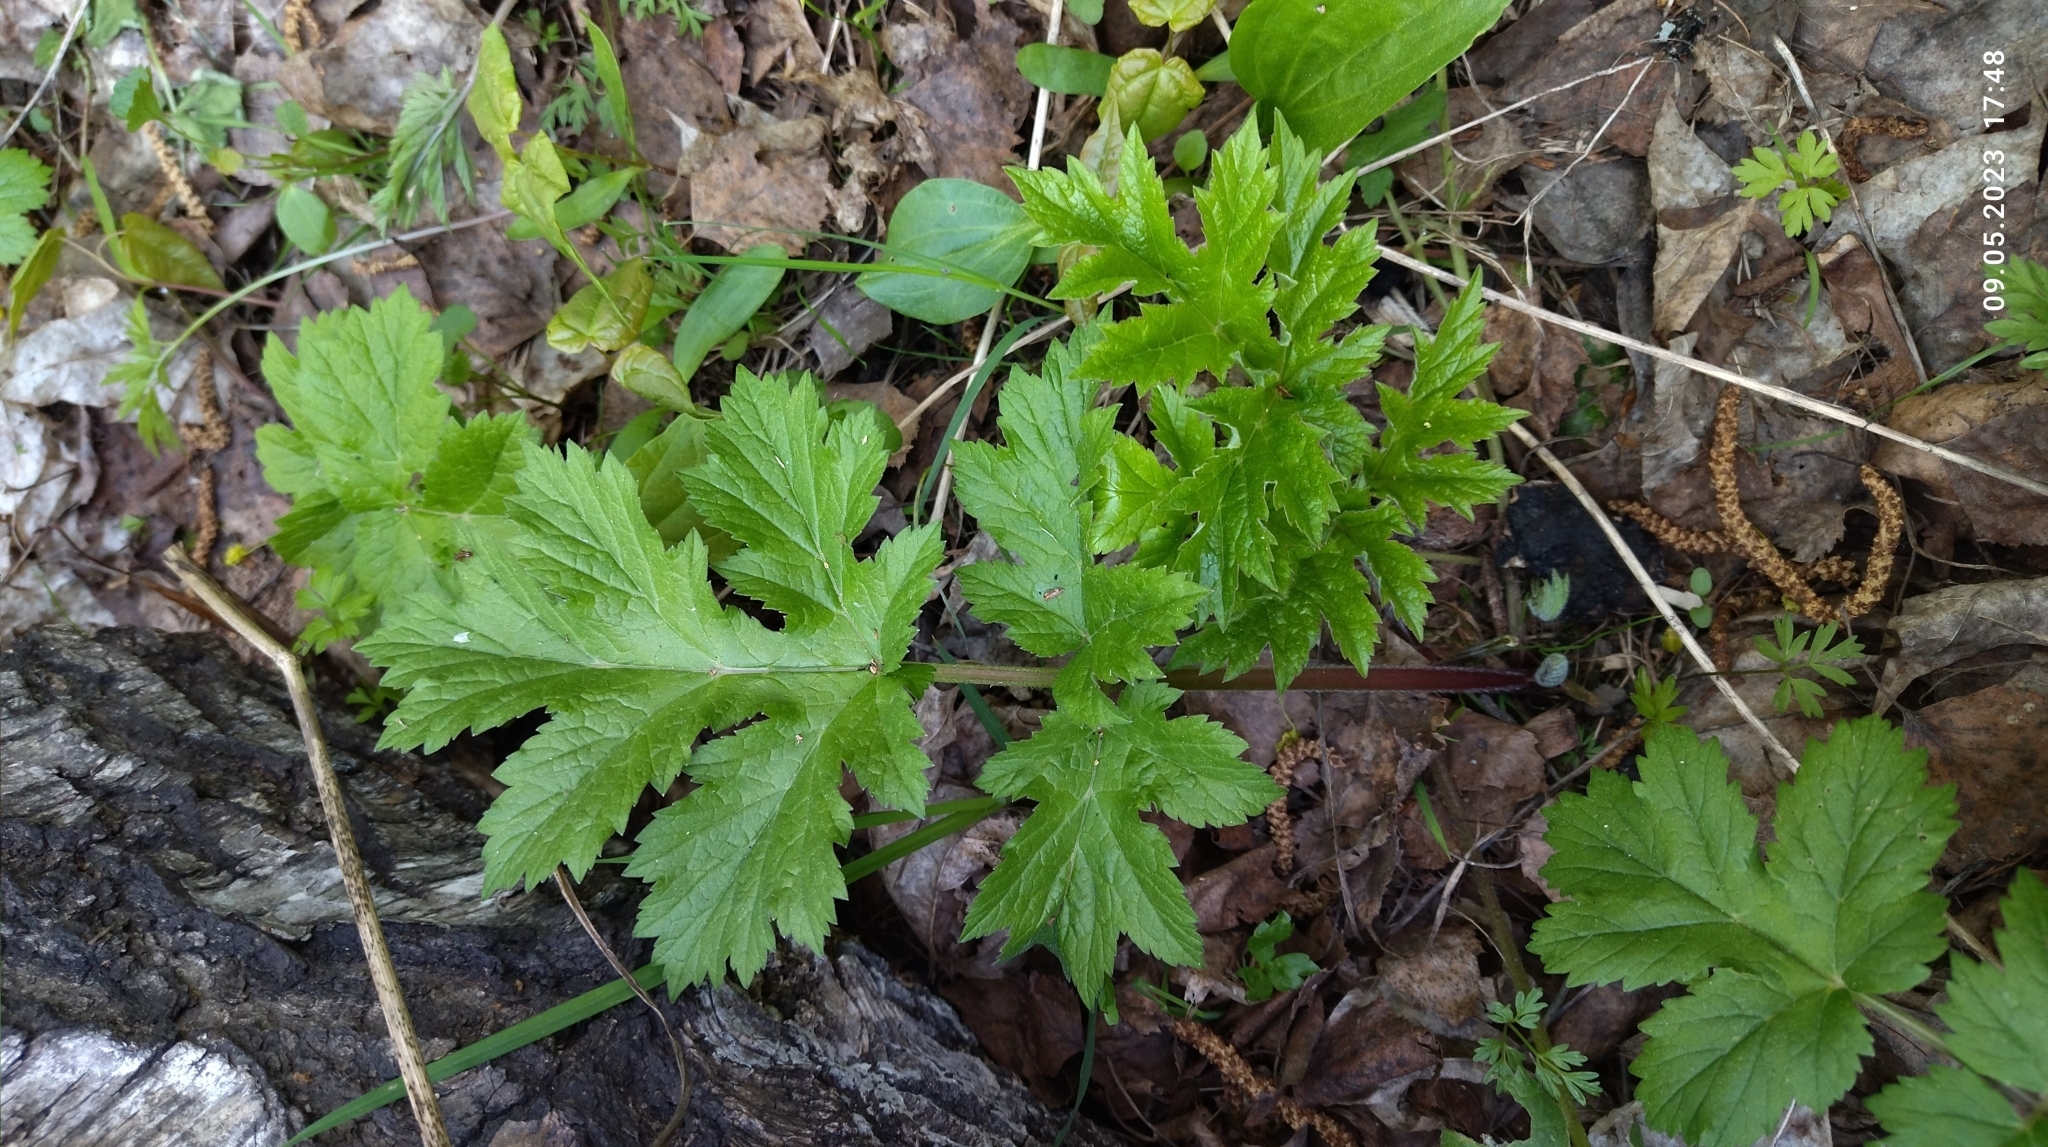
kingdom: Plantae
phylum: Tracheophyta
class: Magnoliopsida
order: Apiales
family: Apiaceae
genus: Heracleum
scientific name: Heracleum sphondylium
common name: Hogweed
